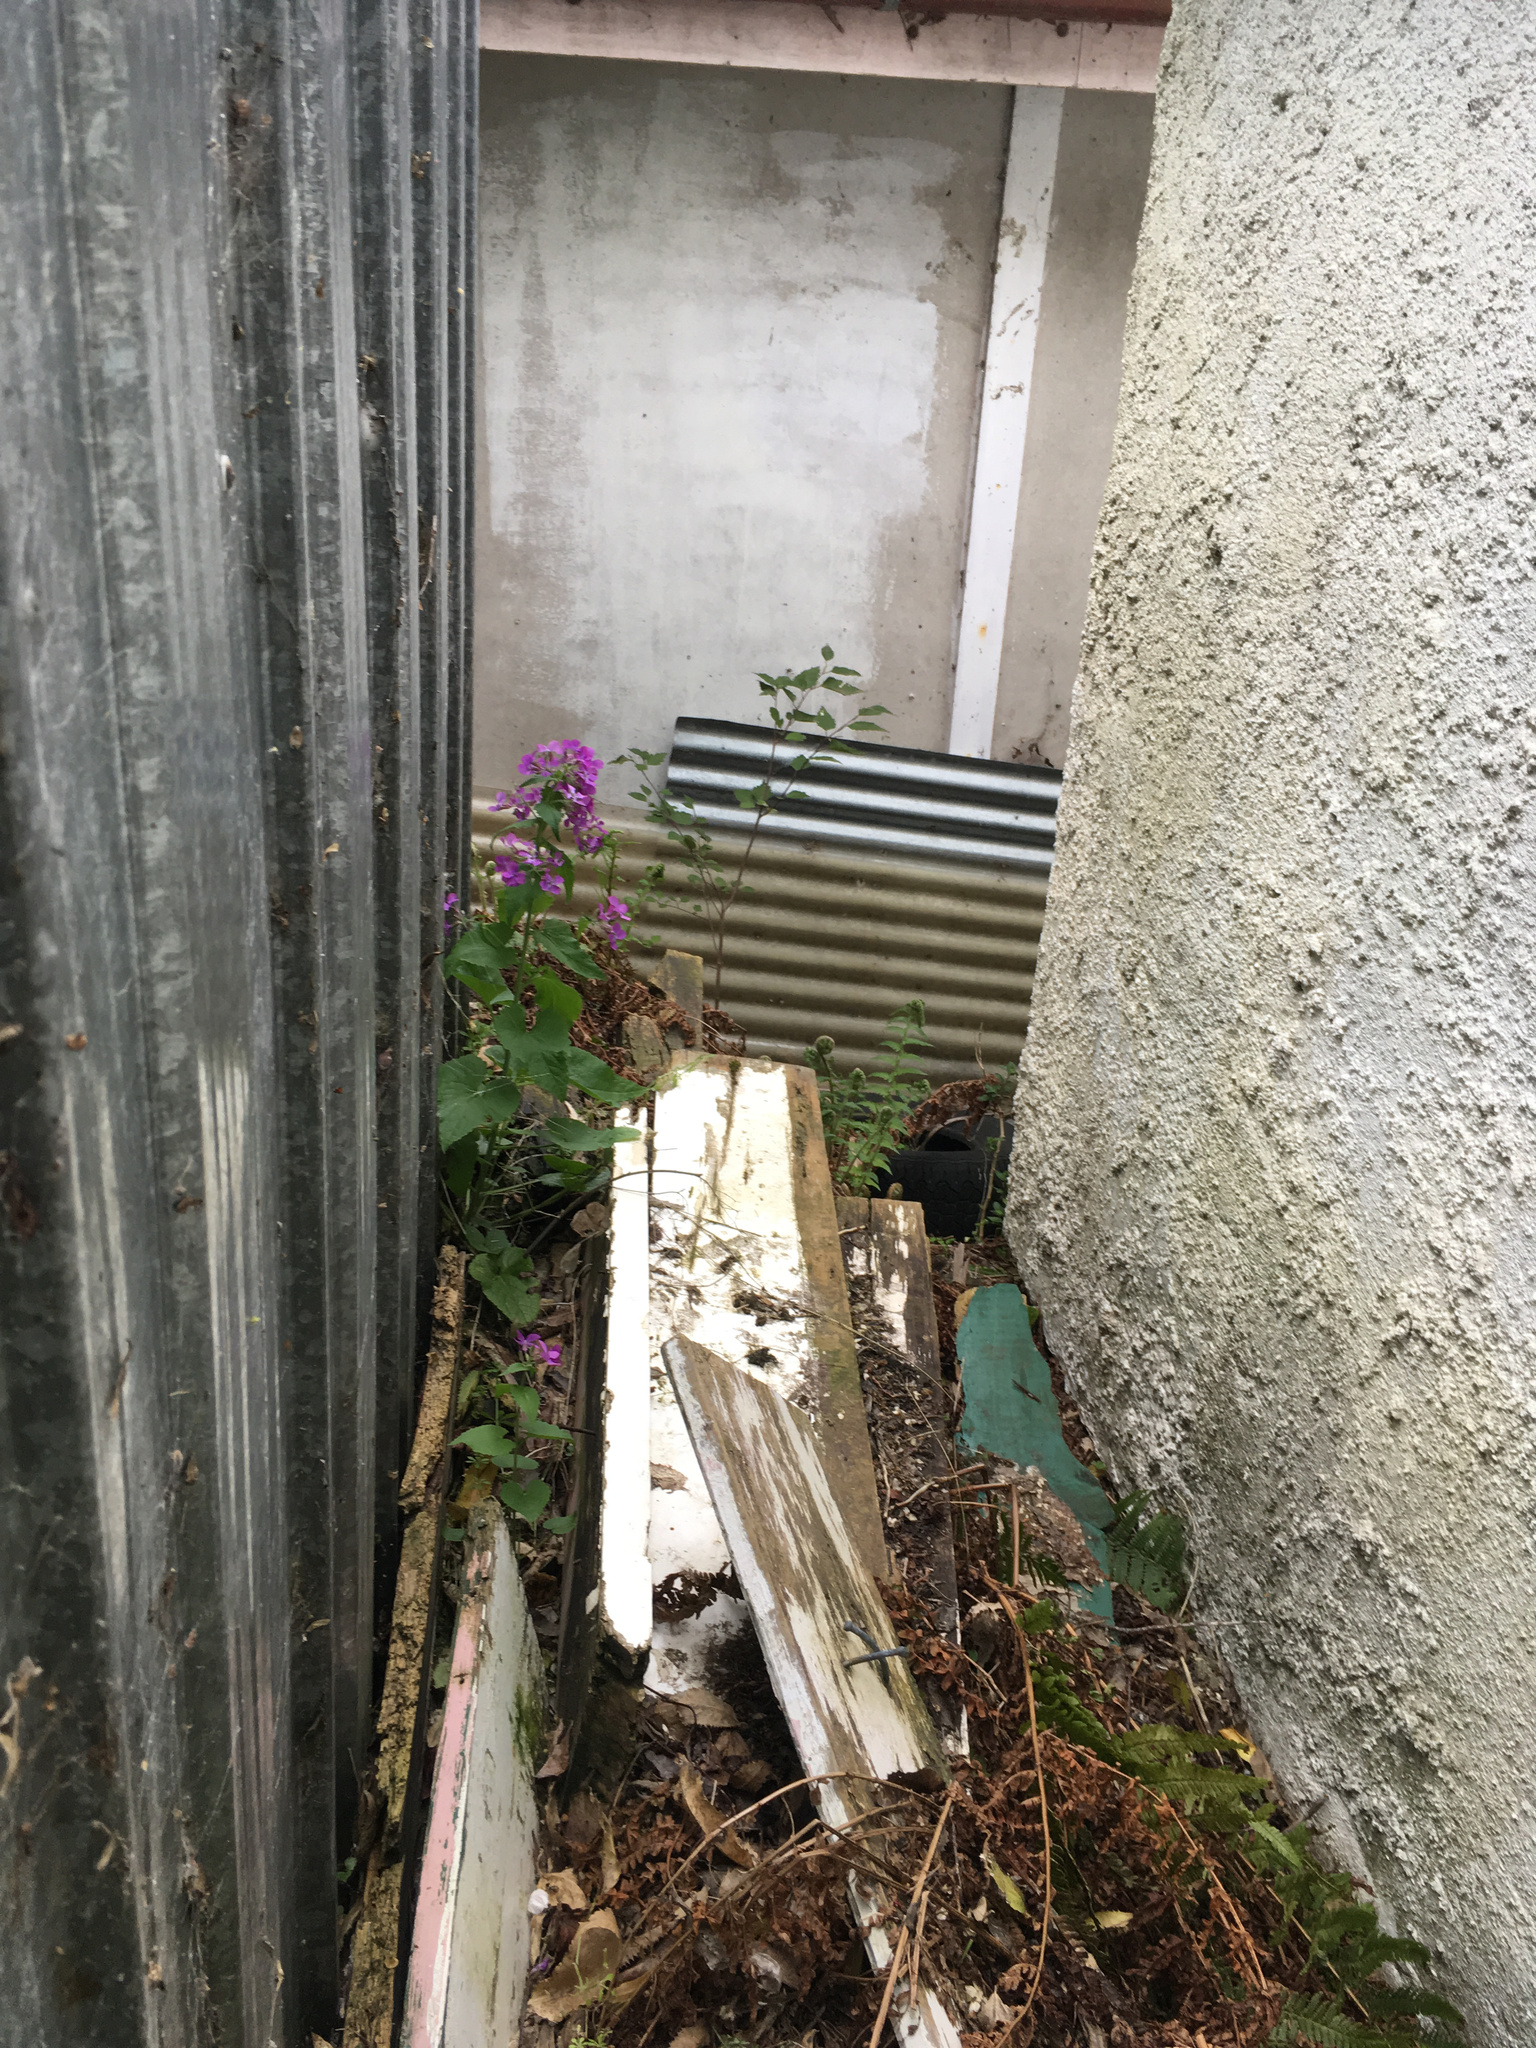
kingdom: Plantae
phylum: Tracheophyta
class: Magnoliopsida
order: Brassicales
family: Brassicaceae
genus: Lunaria
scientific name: Lunaria annua
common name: Honesty
